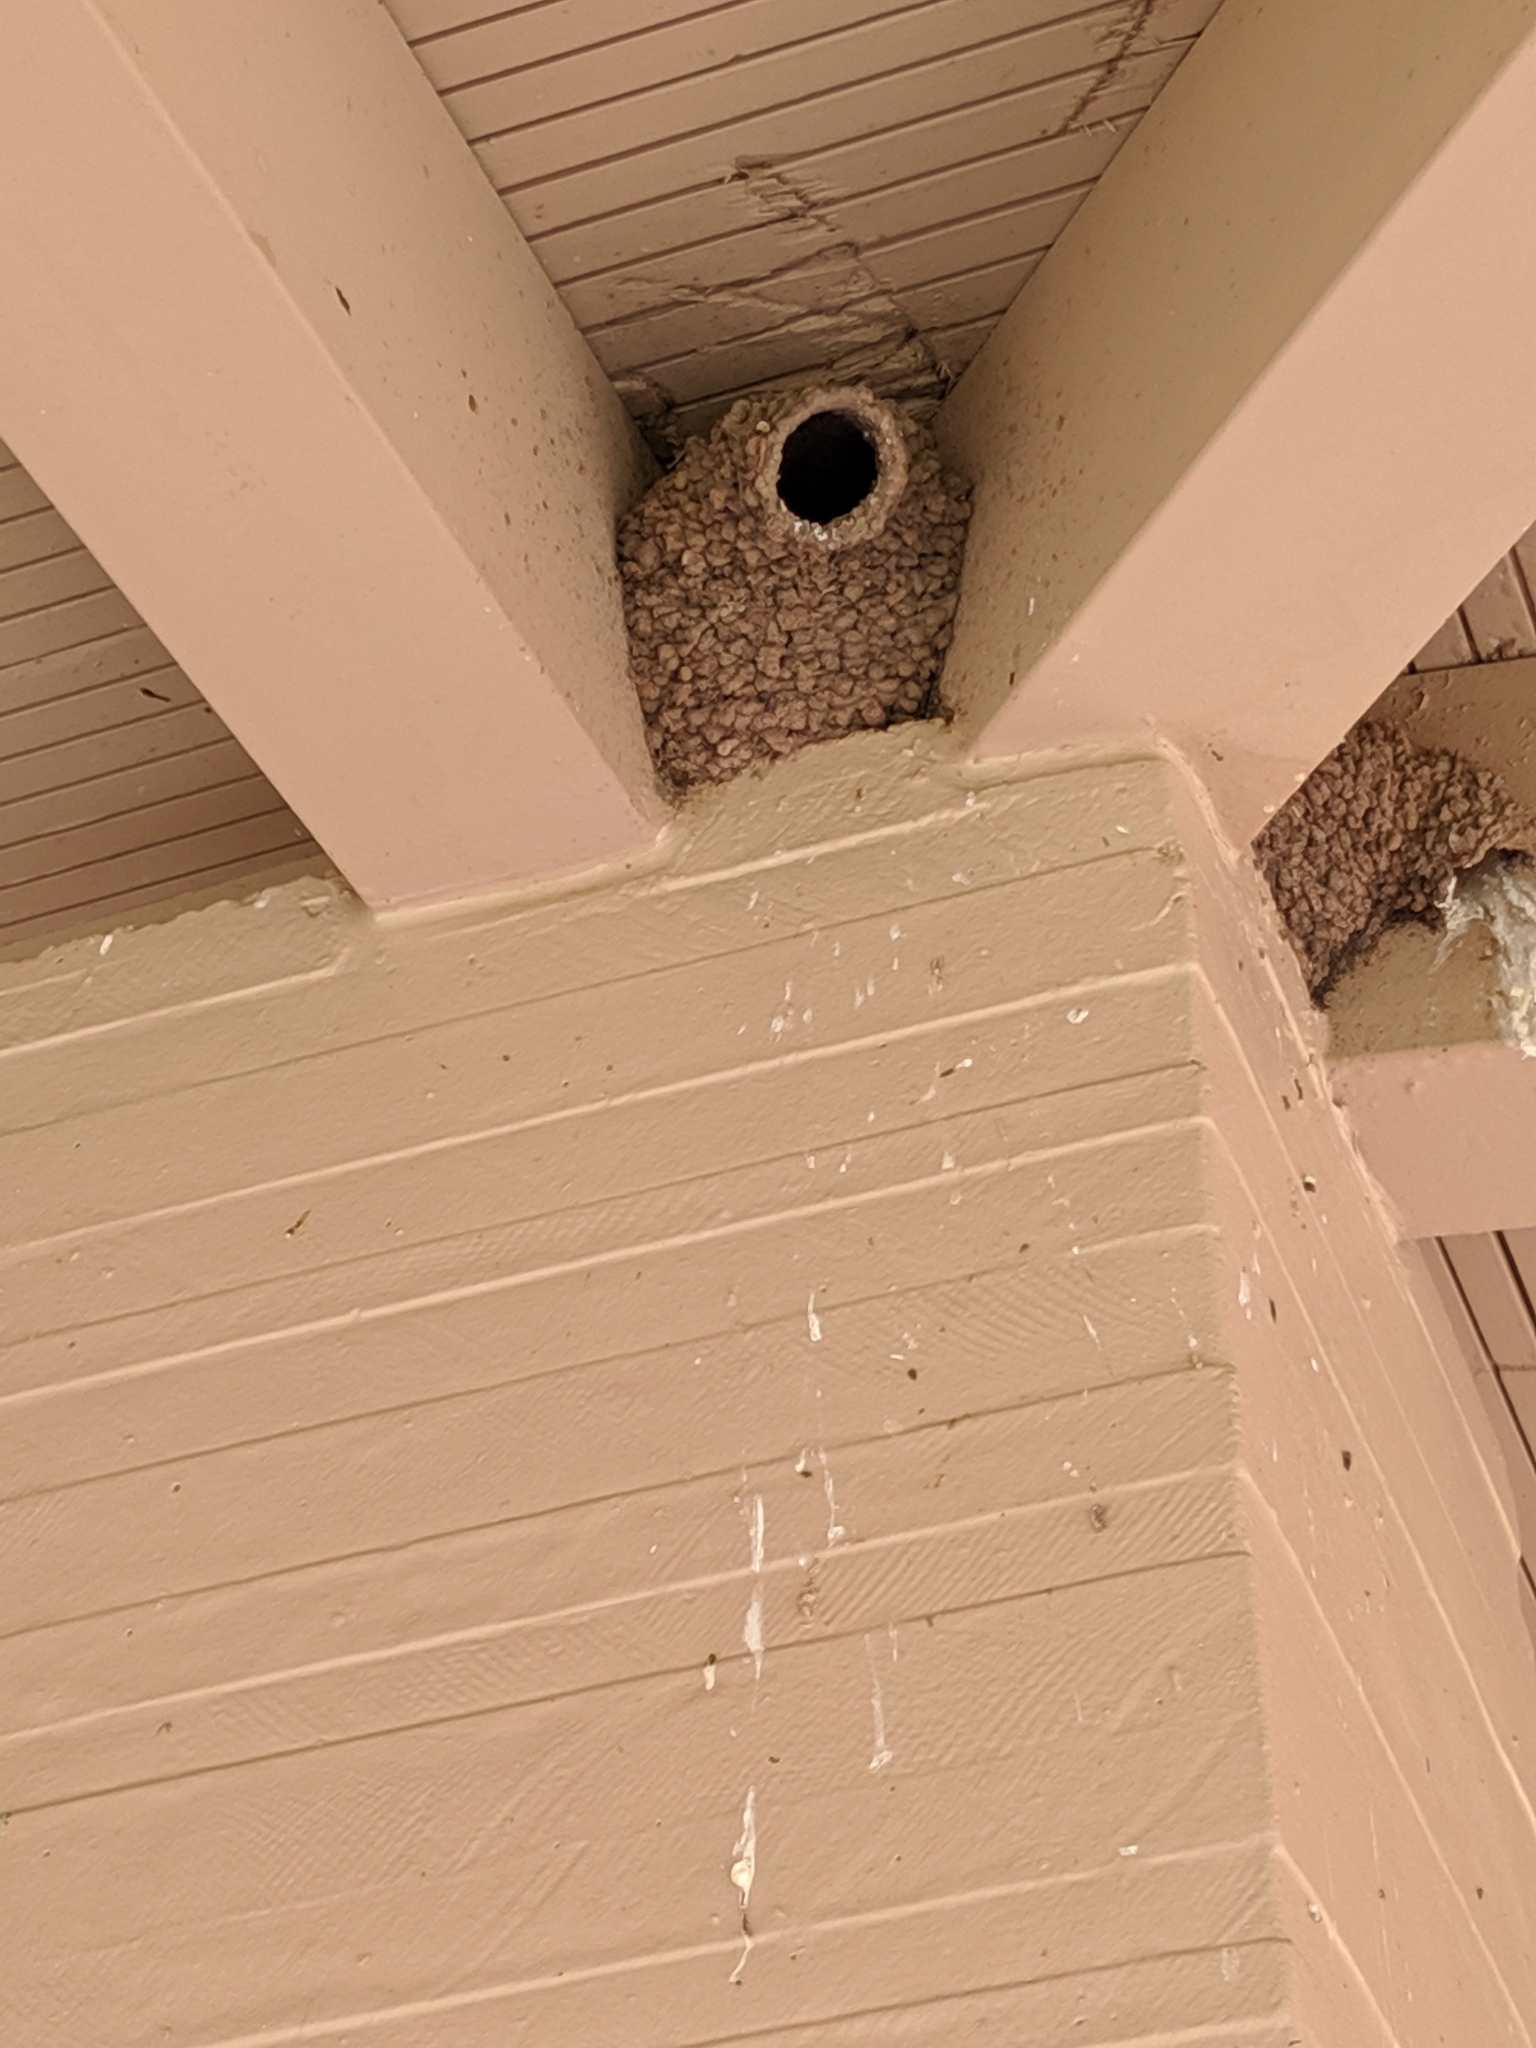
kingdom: Animalia
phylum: Chordata
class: Aves
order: Passeriformes
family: Hirundinidae
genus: Petrochelidon
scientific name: Petrochelidon pyrrhonota
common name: American cliff swallow
